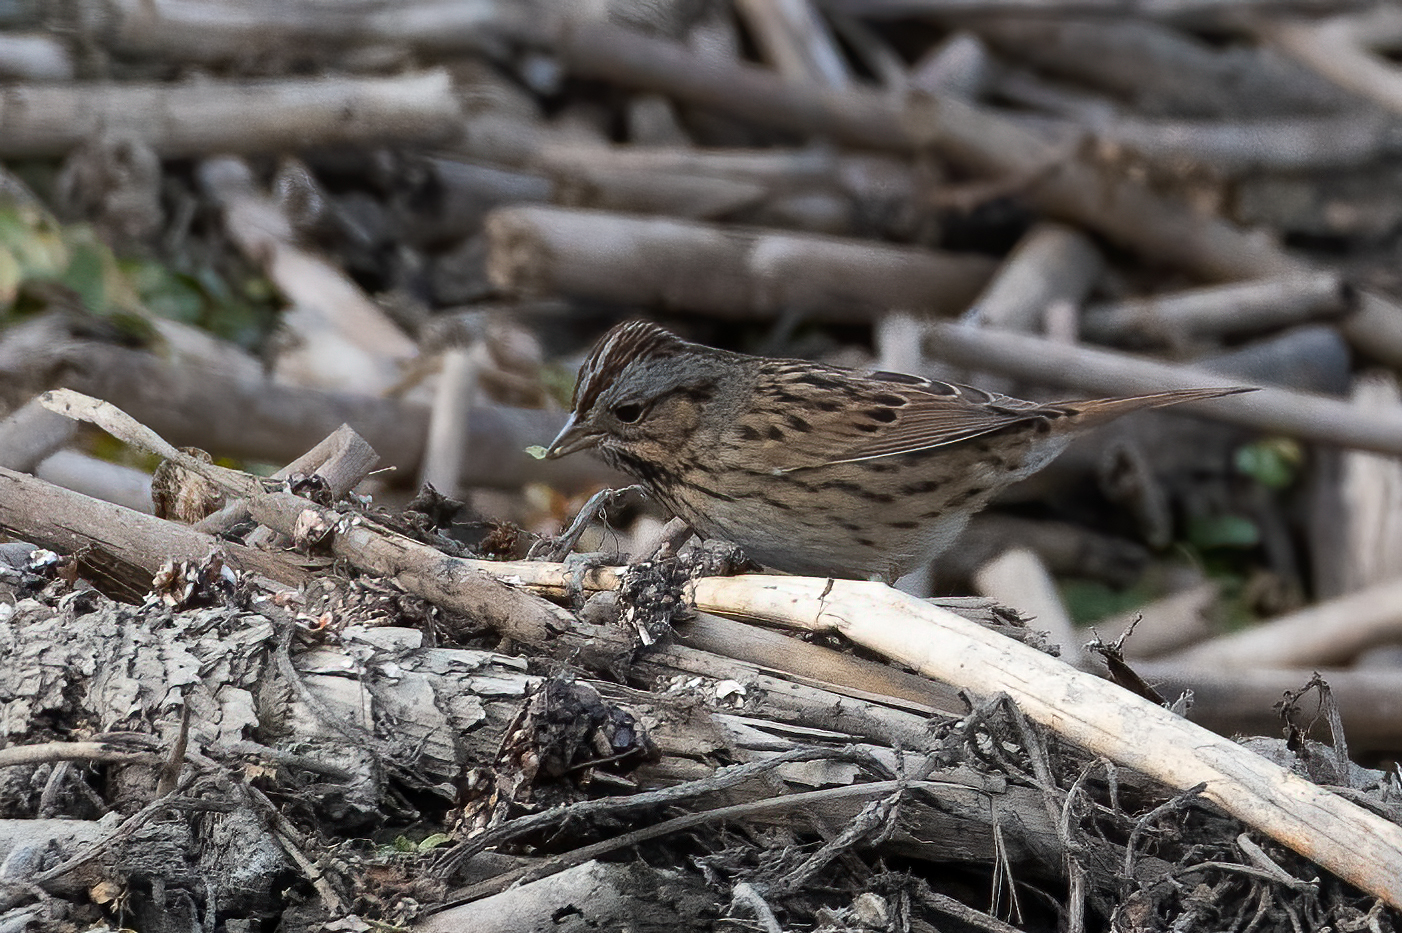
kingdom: Animalia
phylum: Chordata
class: Aves
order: Passeriformes
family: Passerellidae
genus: Melospiza
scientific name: Melospiza lincolnii
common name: Lincoln's sparrow
